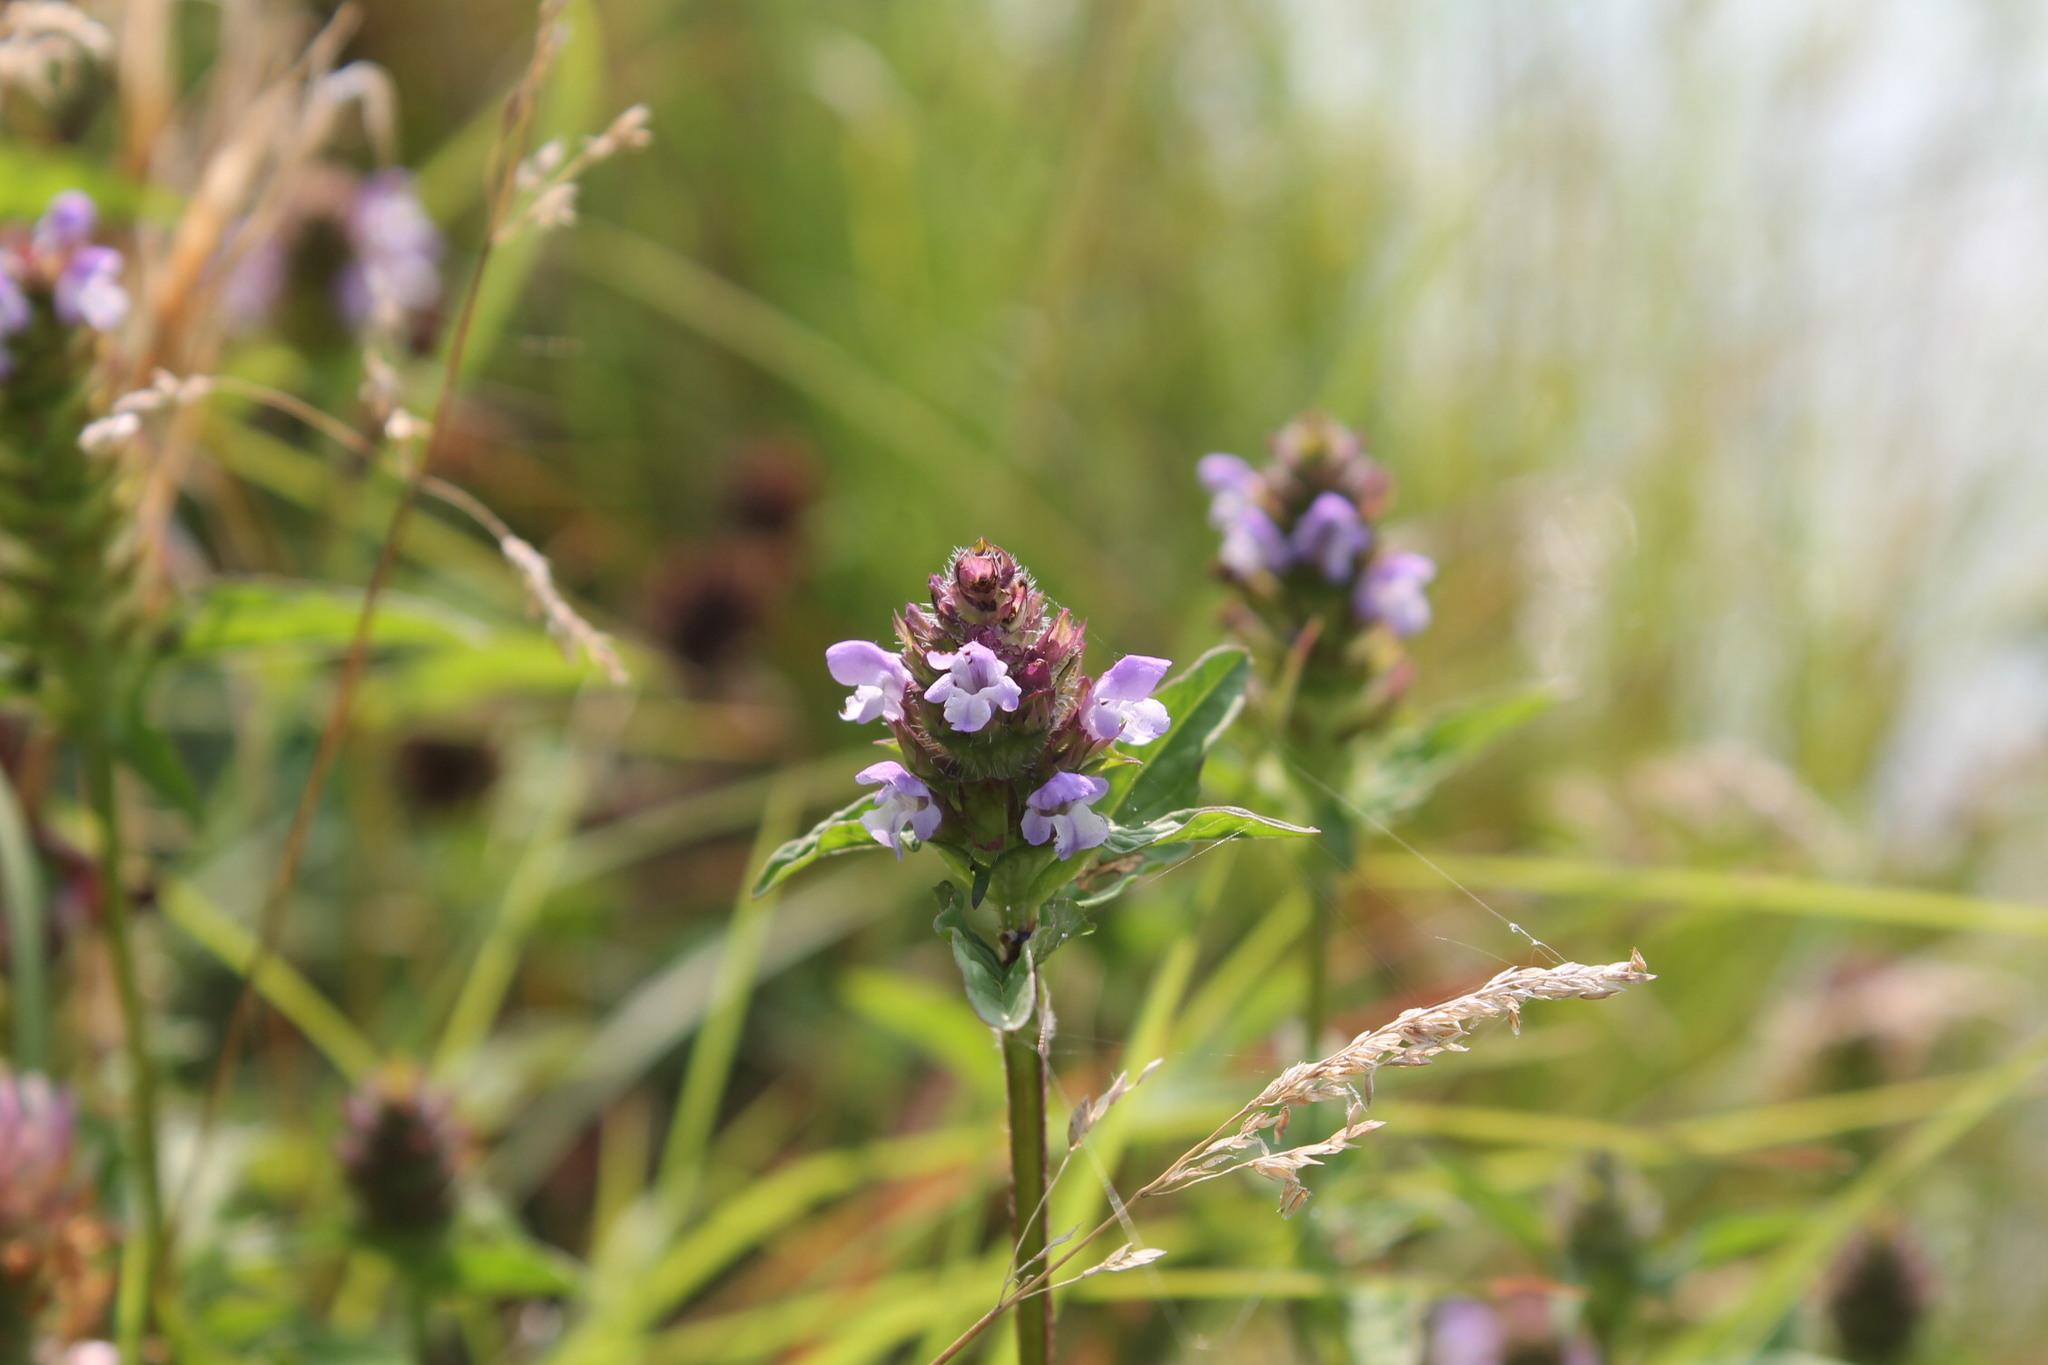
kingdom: Plantae
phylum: Tracheophyta
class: Magnoliopsida
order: Lamiales
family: Lamiaceae
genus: Prunella
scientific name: Prunella vulgaris
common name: Heal-all
